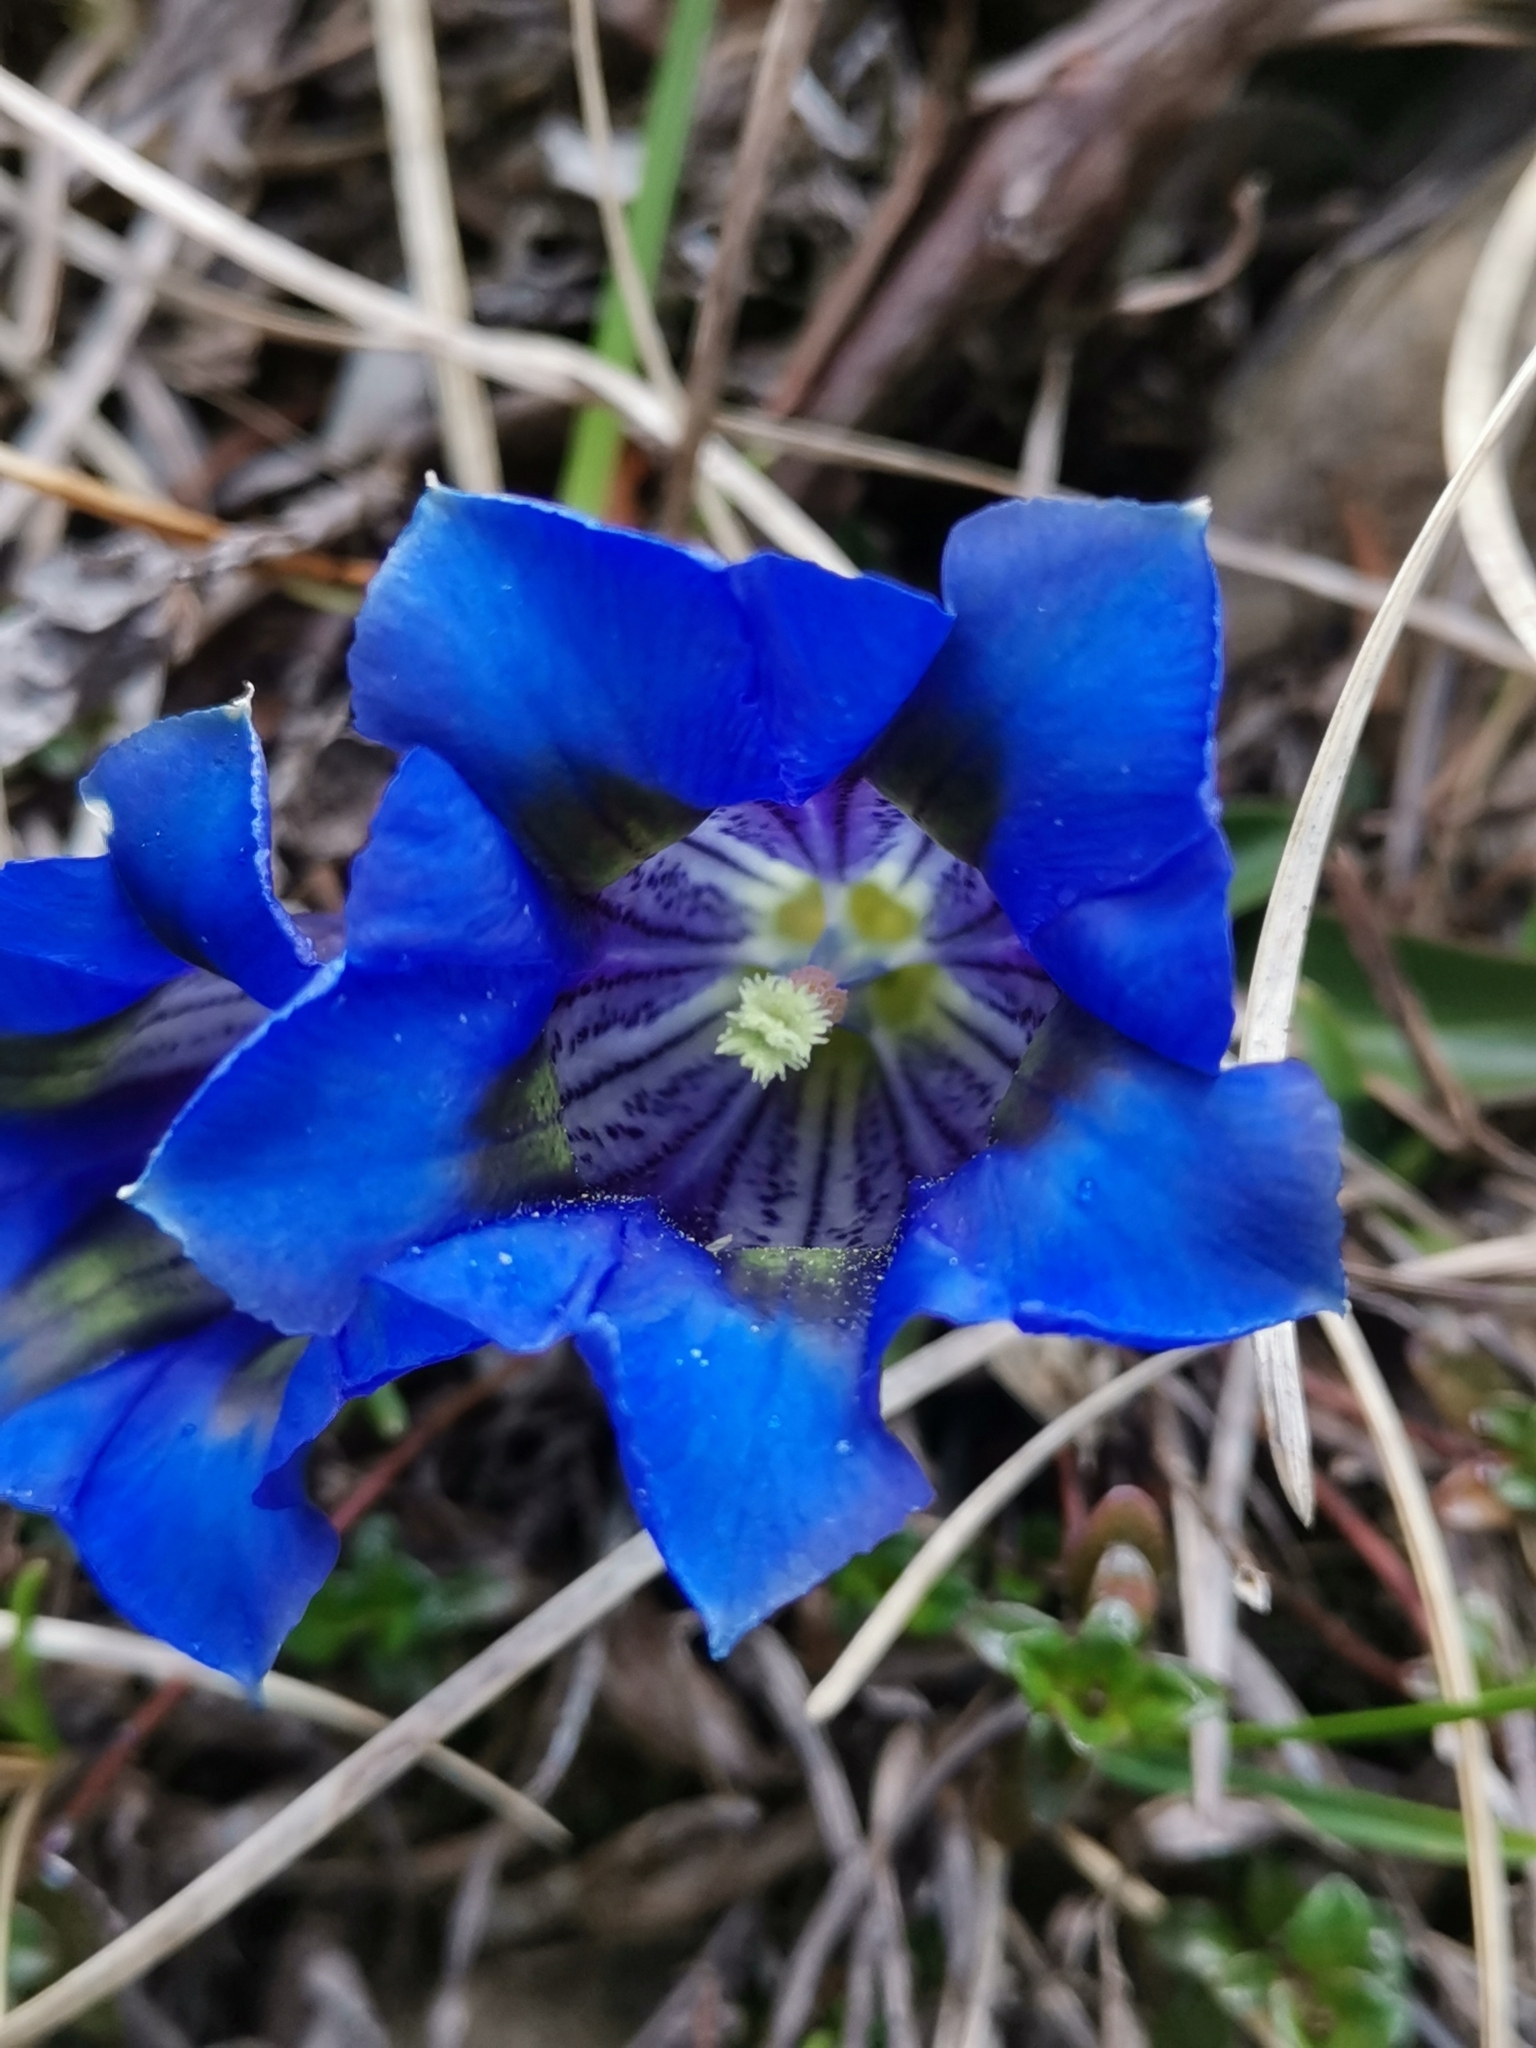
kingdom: Plantae
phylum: Tracheophyta
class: Magnoliopsida
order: Gentianales
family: Gentianaceae
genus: Gentiana
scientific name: Gentiana clusii
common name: Trumpet gentian
